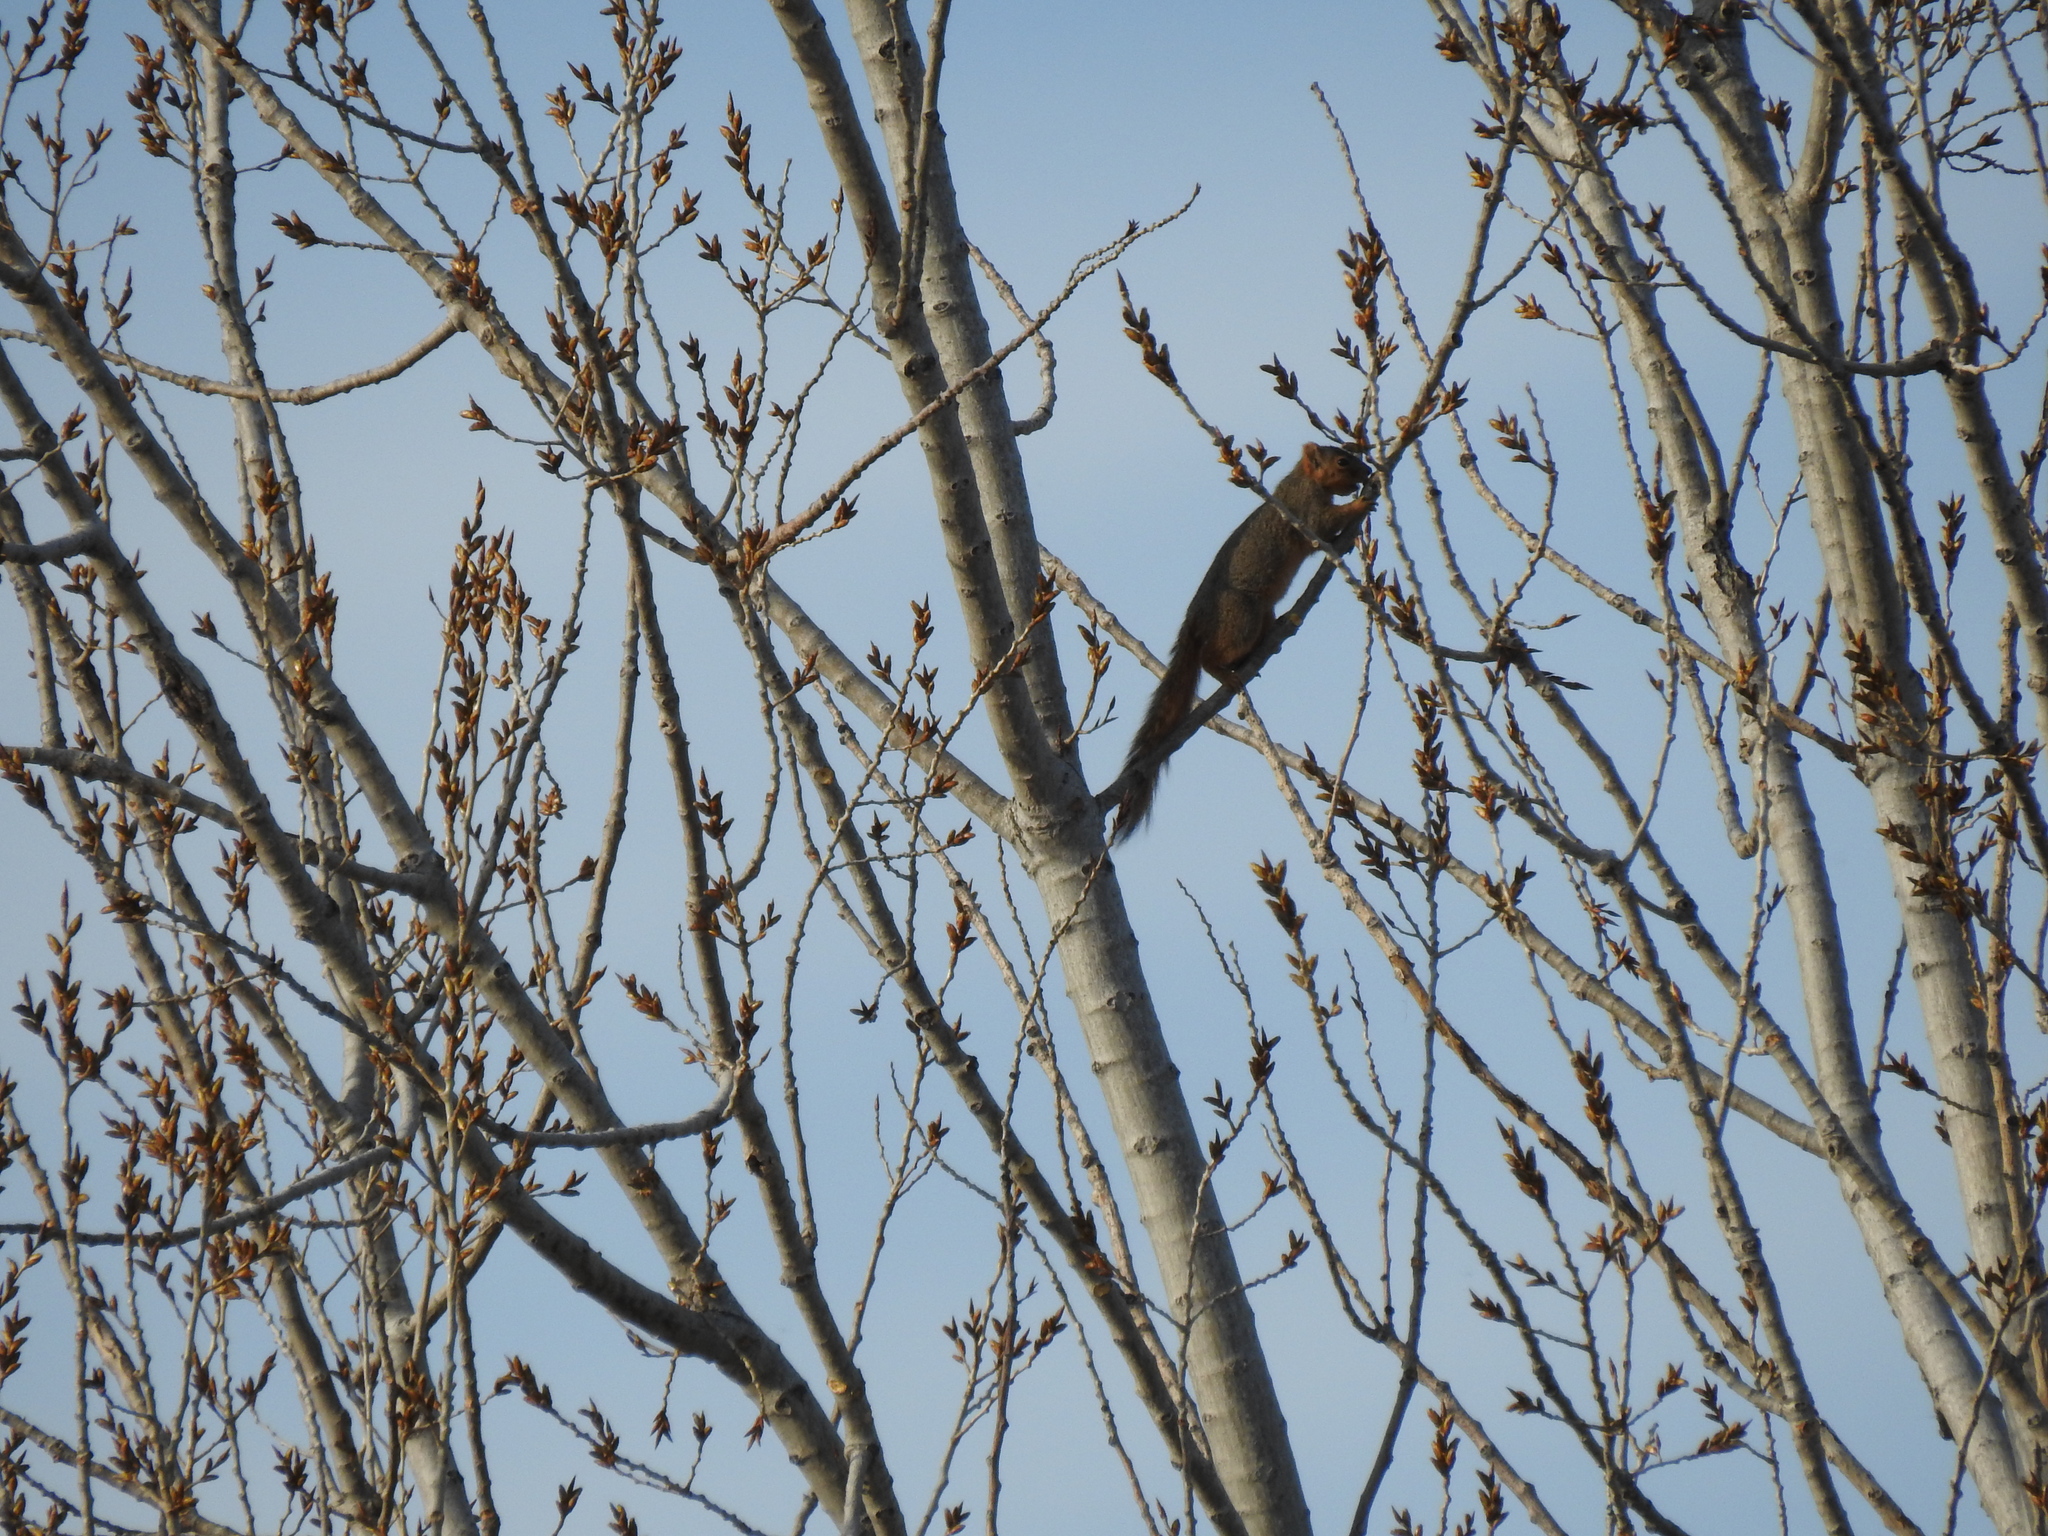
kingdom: Animalia
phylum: Chordata
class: Mammalia
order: Rodentia
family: Sciuridae
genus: Sciurus
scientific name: Sciurus niger
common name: Fox squirrel
